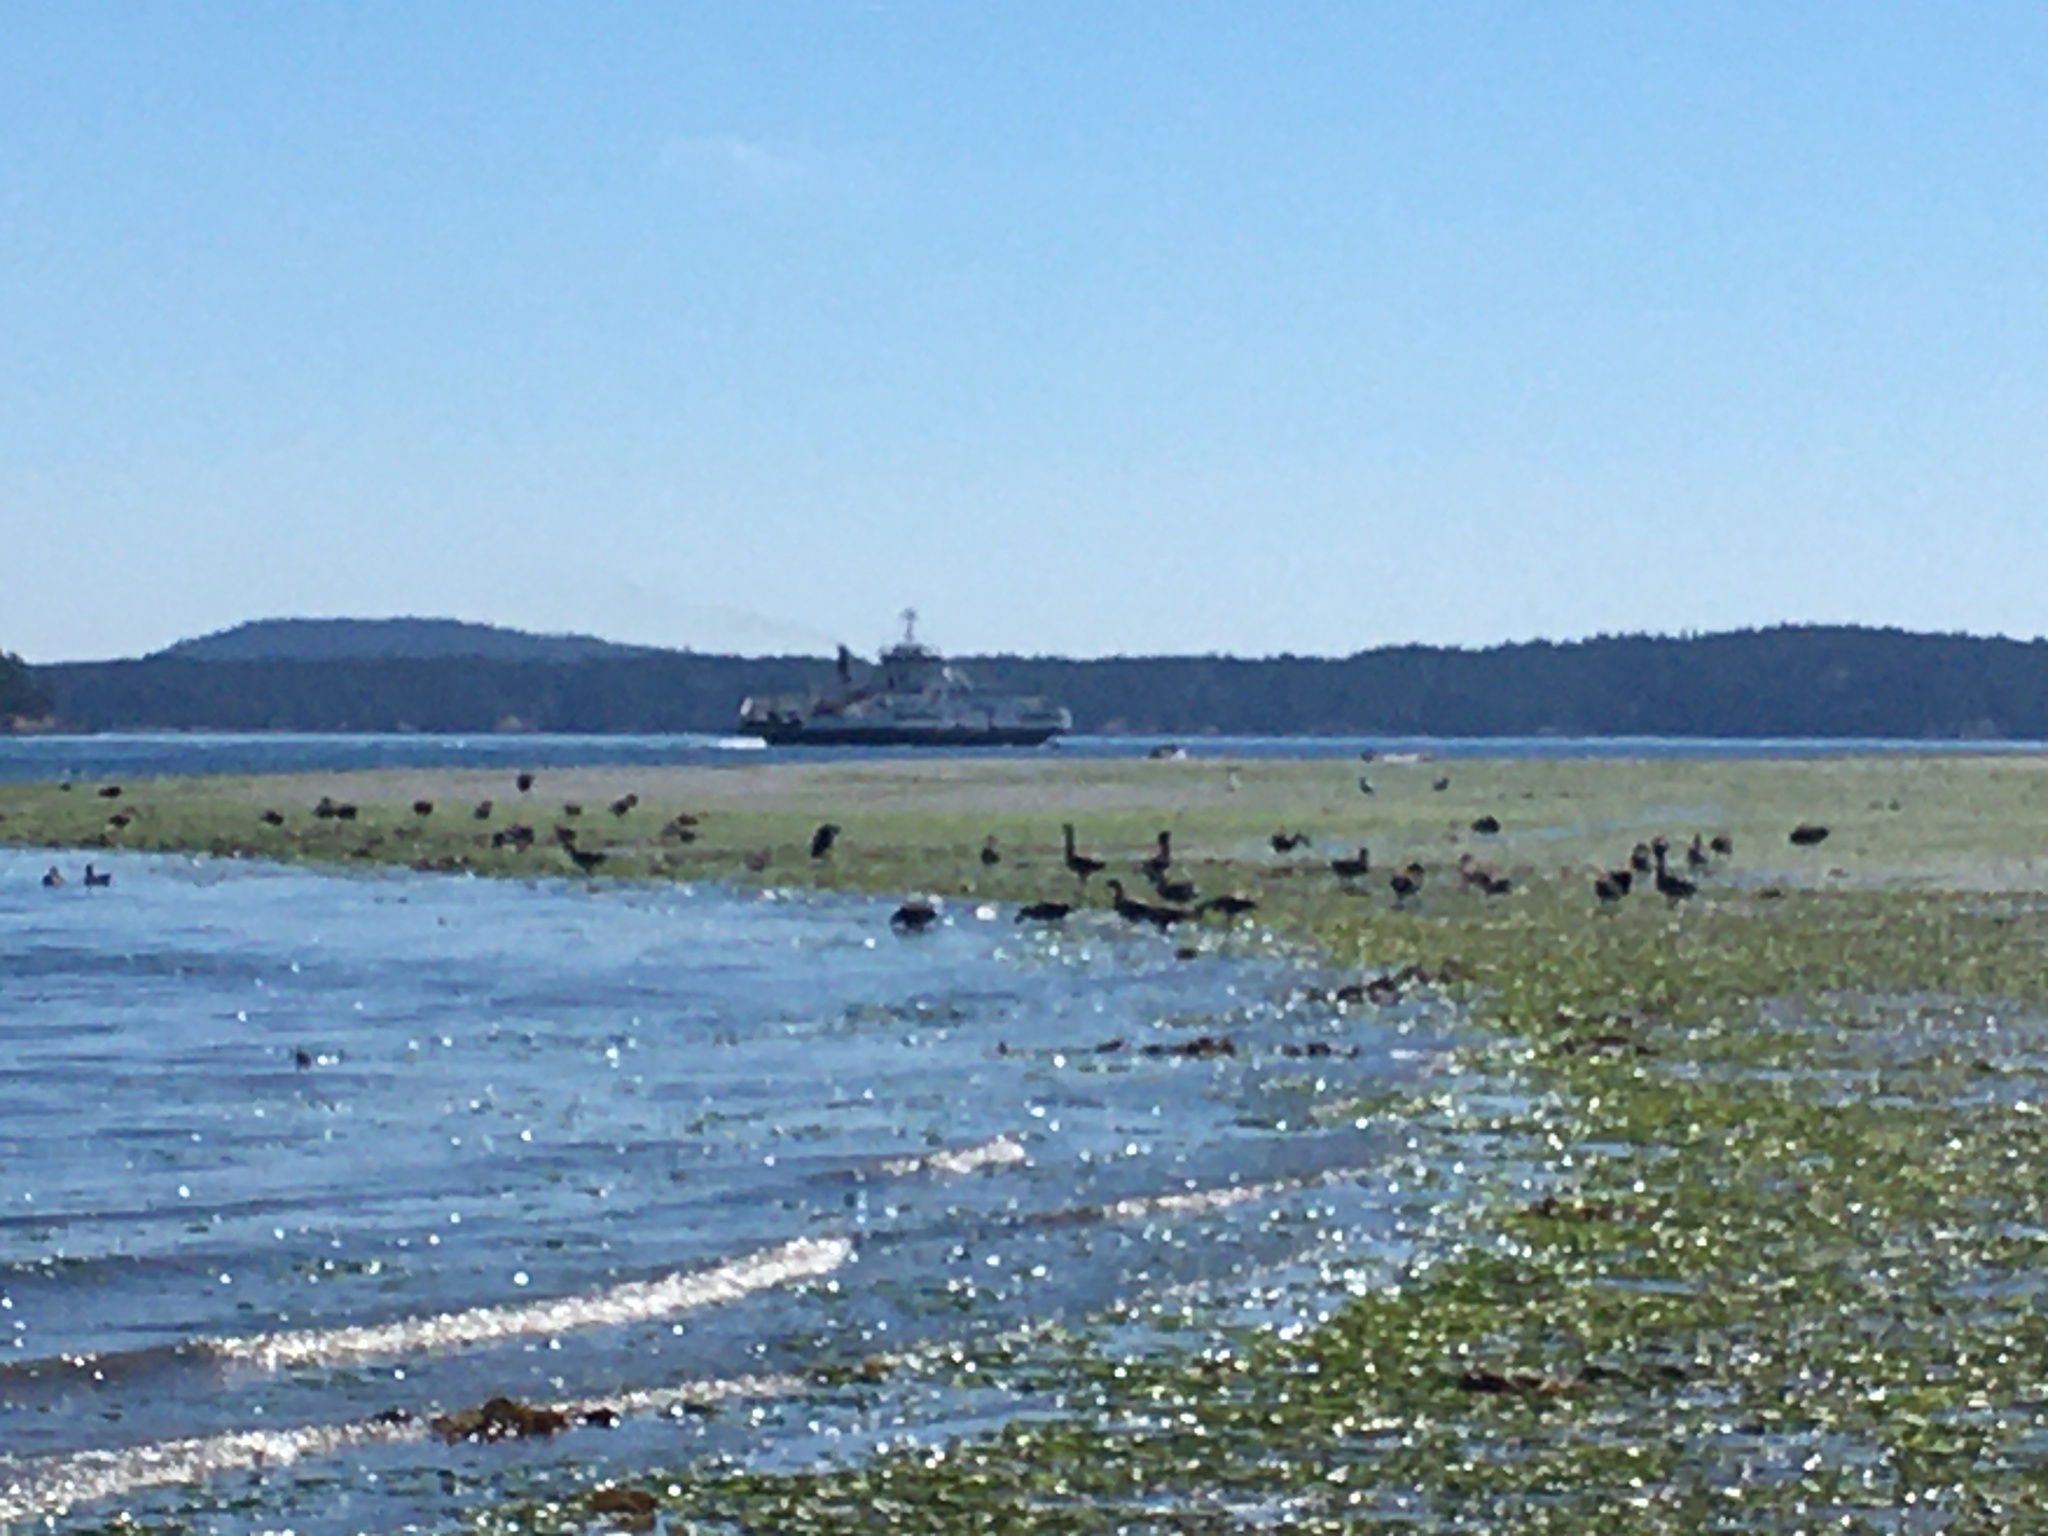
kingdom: Animalia
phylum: Chordata
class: Aves
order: Anseriformes
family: Anatidae
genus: Branta
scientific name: Branta canadensis
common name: Canada goose
